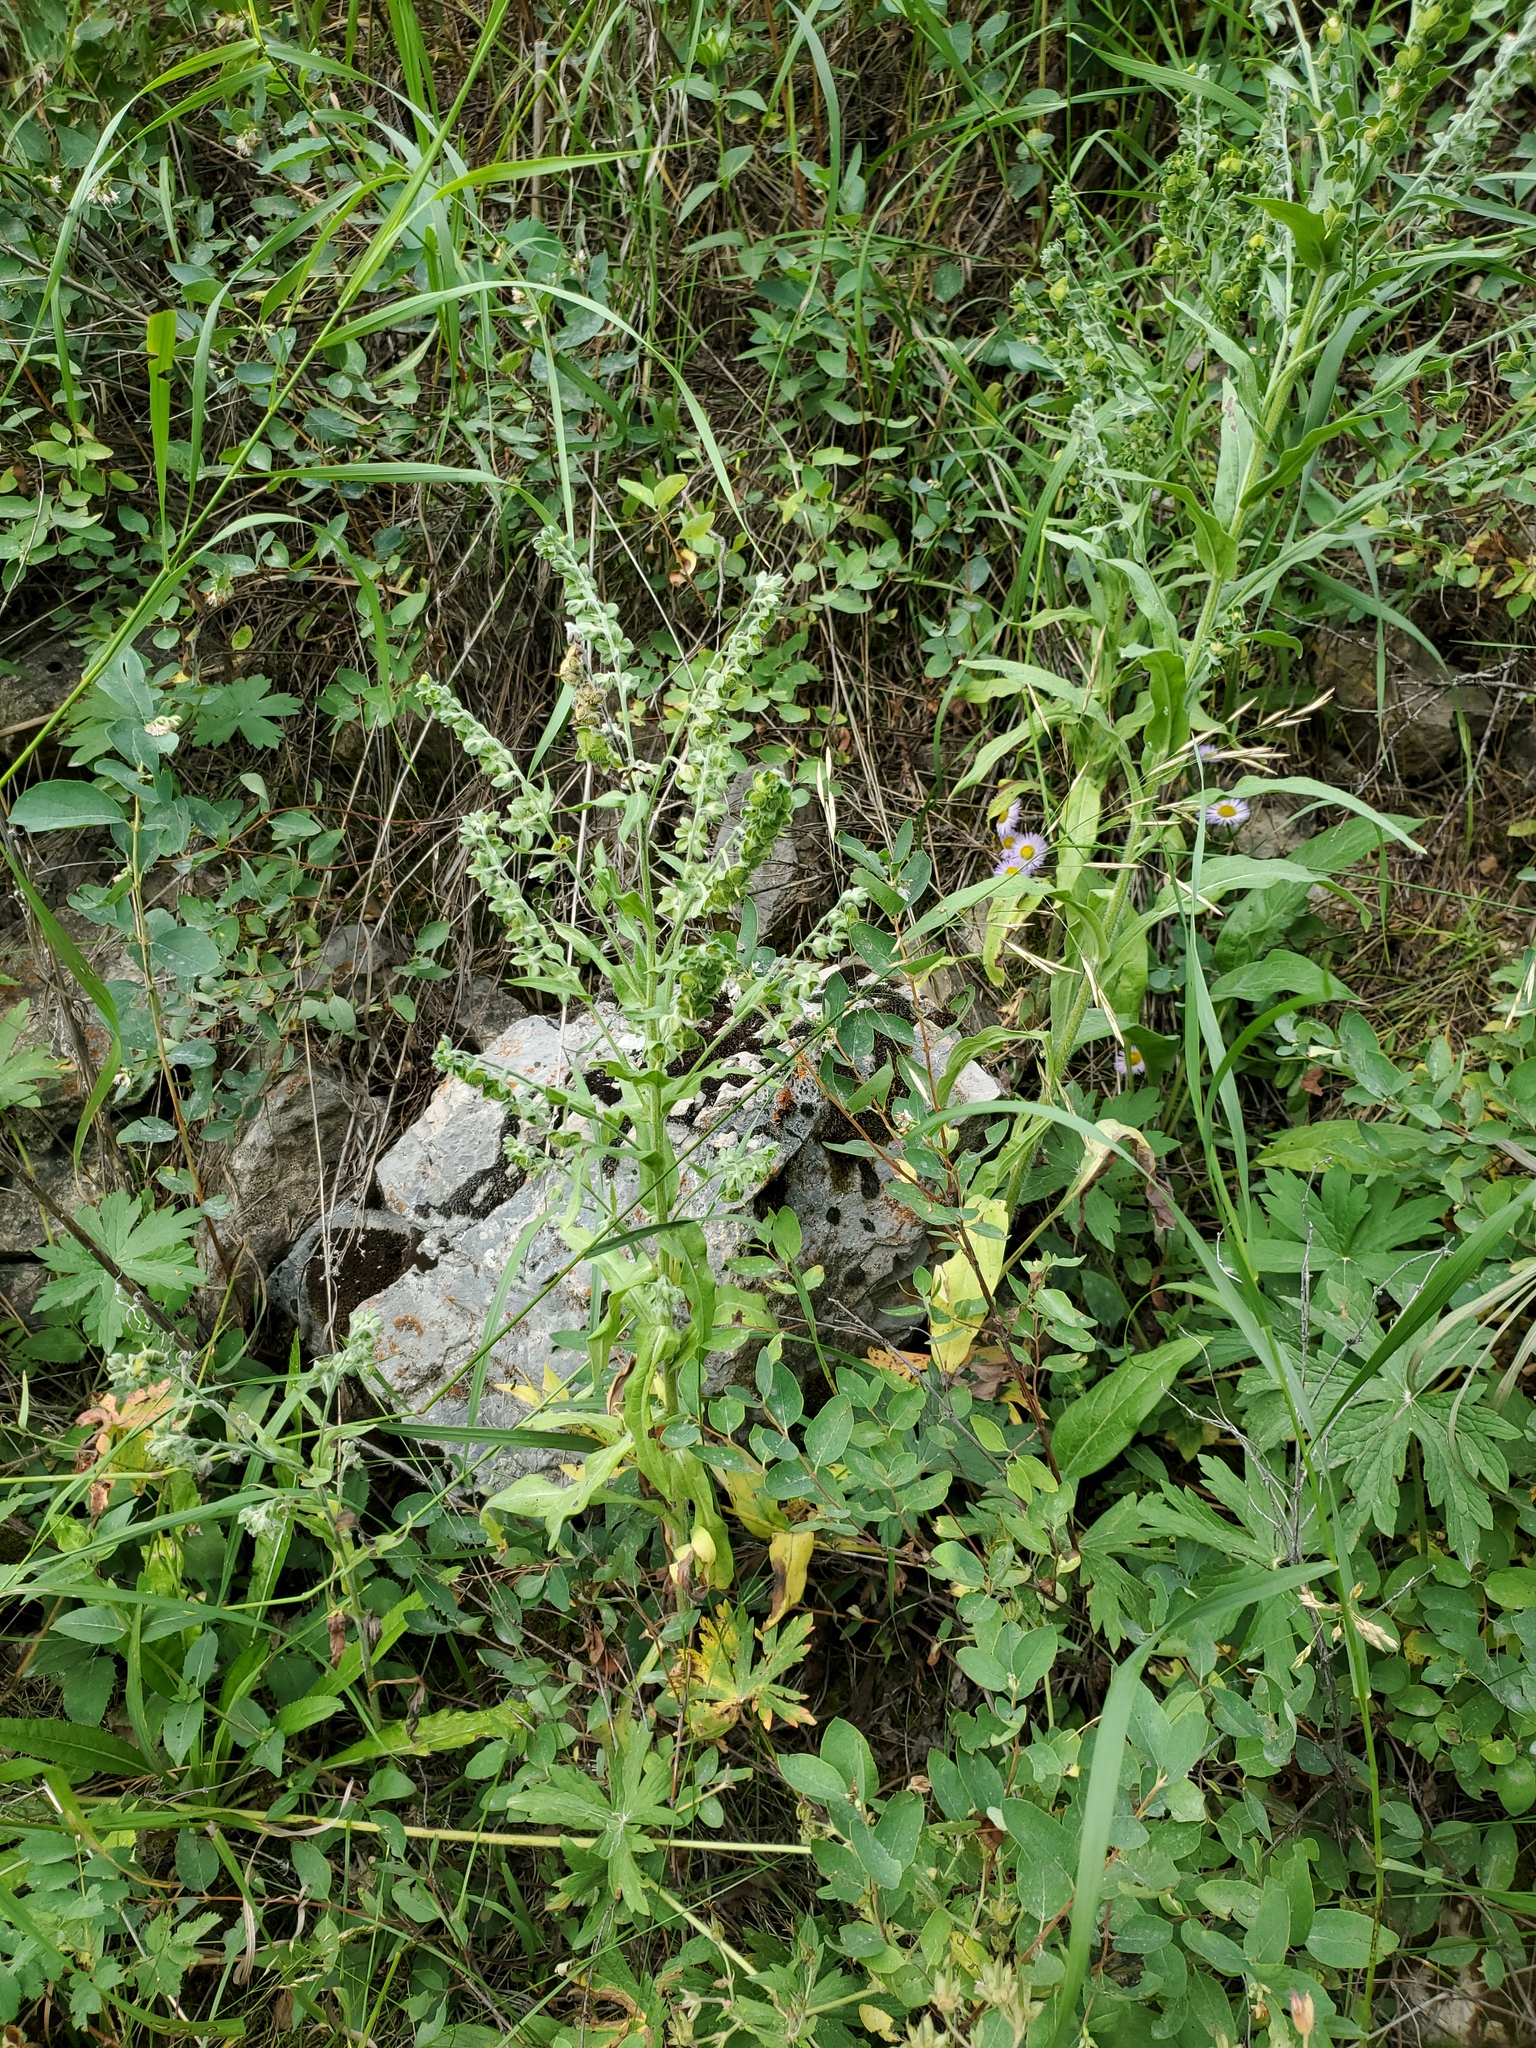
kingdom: Plantae
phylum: Tracheophyta
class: Magnoliopsida
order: Boraginales
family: Boraginaceae
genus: Cynoglossum
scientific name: Cynoglossum officinale
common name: Hound's-tongue
